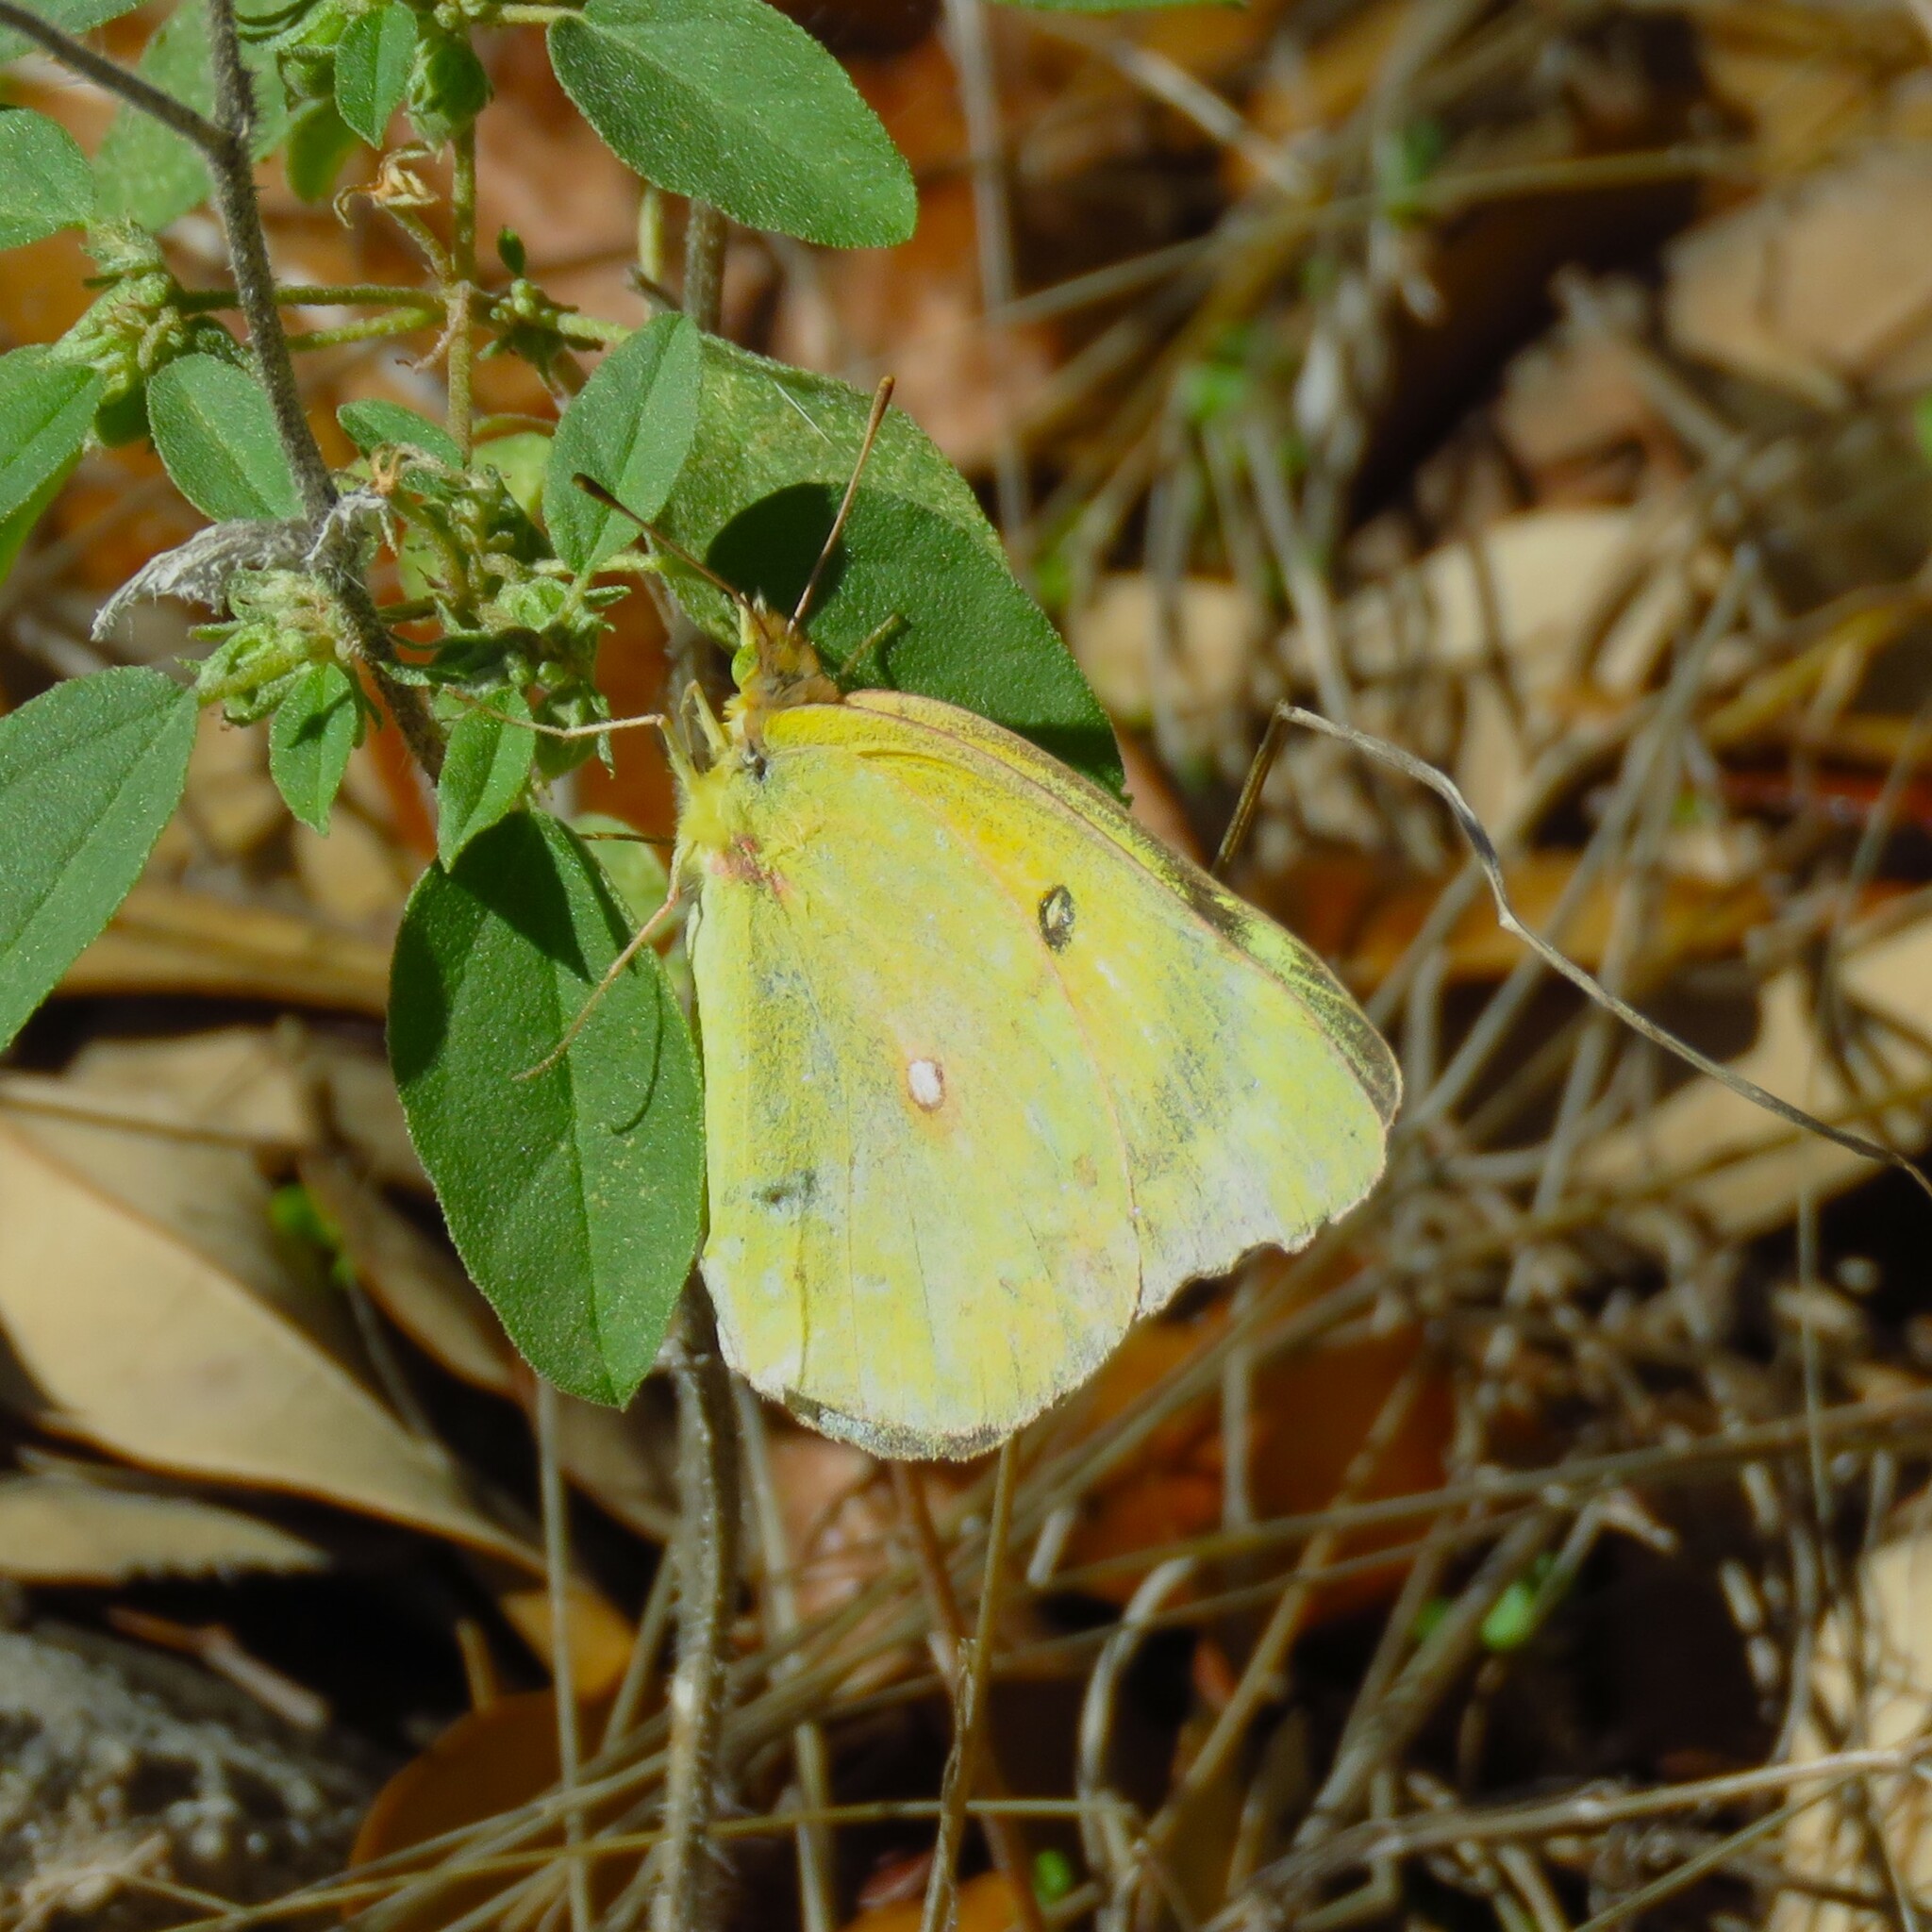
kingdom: Animalia
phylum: Arthropoda
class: Insecta
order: Lepidoptera
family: Pieridae
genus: Colias
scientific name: Colias eurytheme
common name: Alfalfa butterfly
